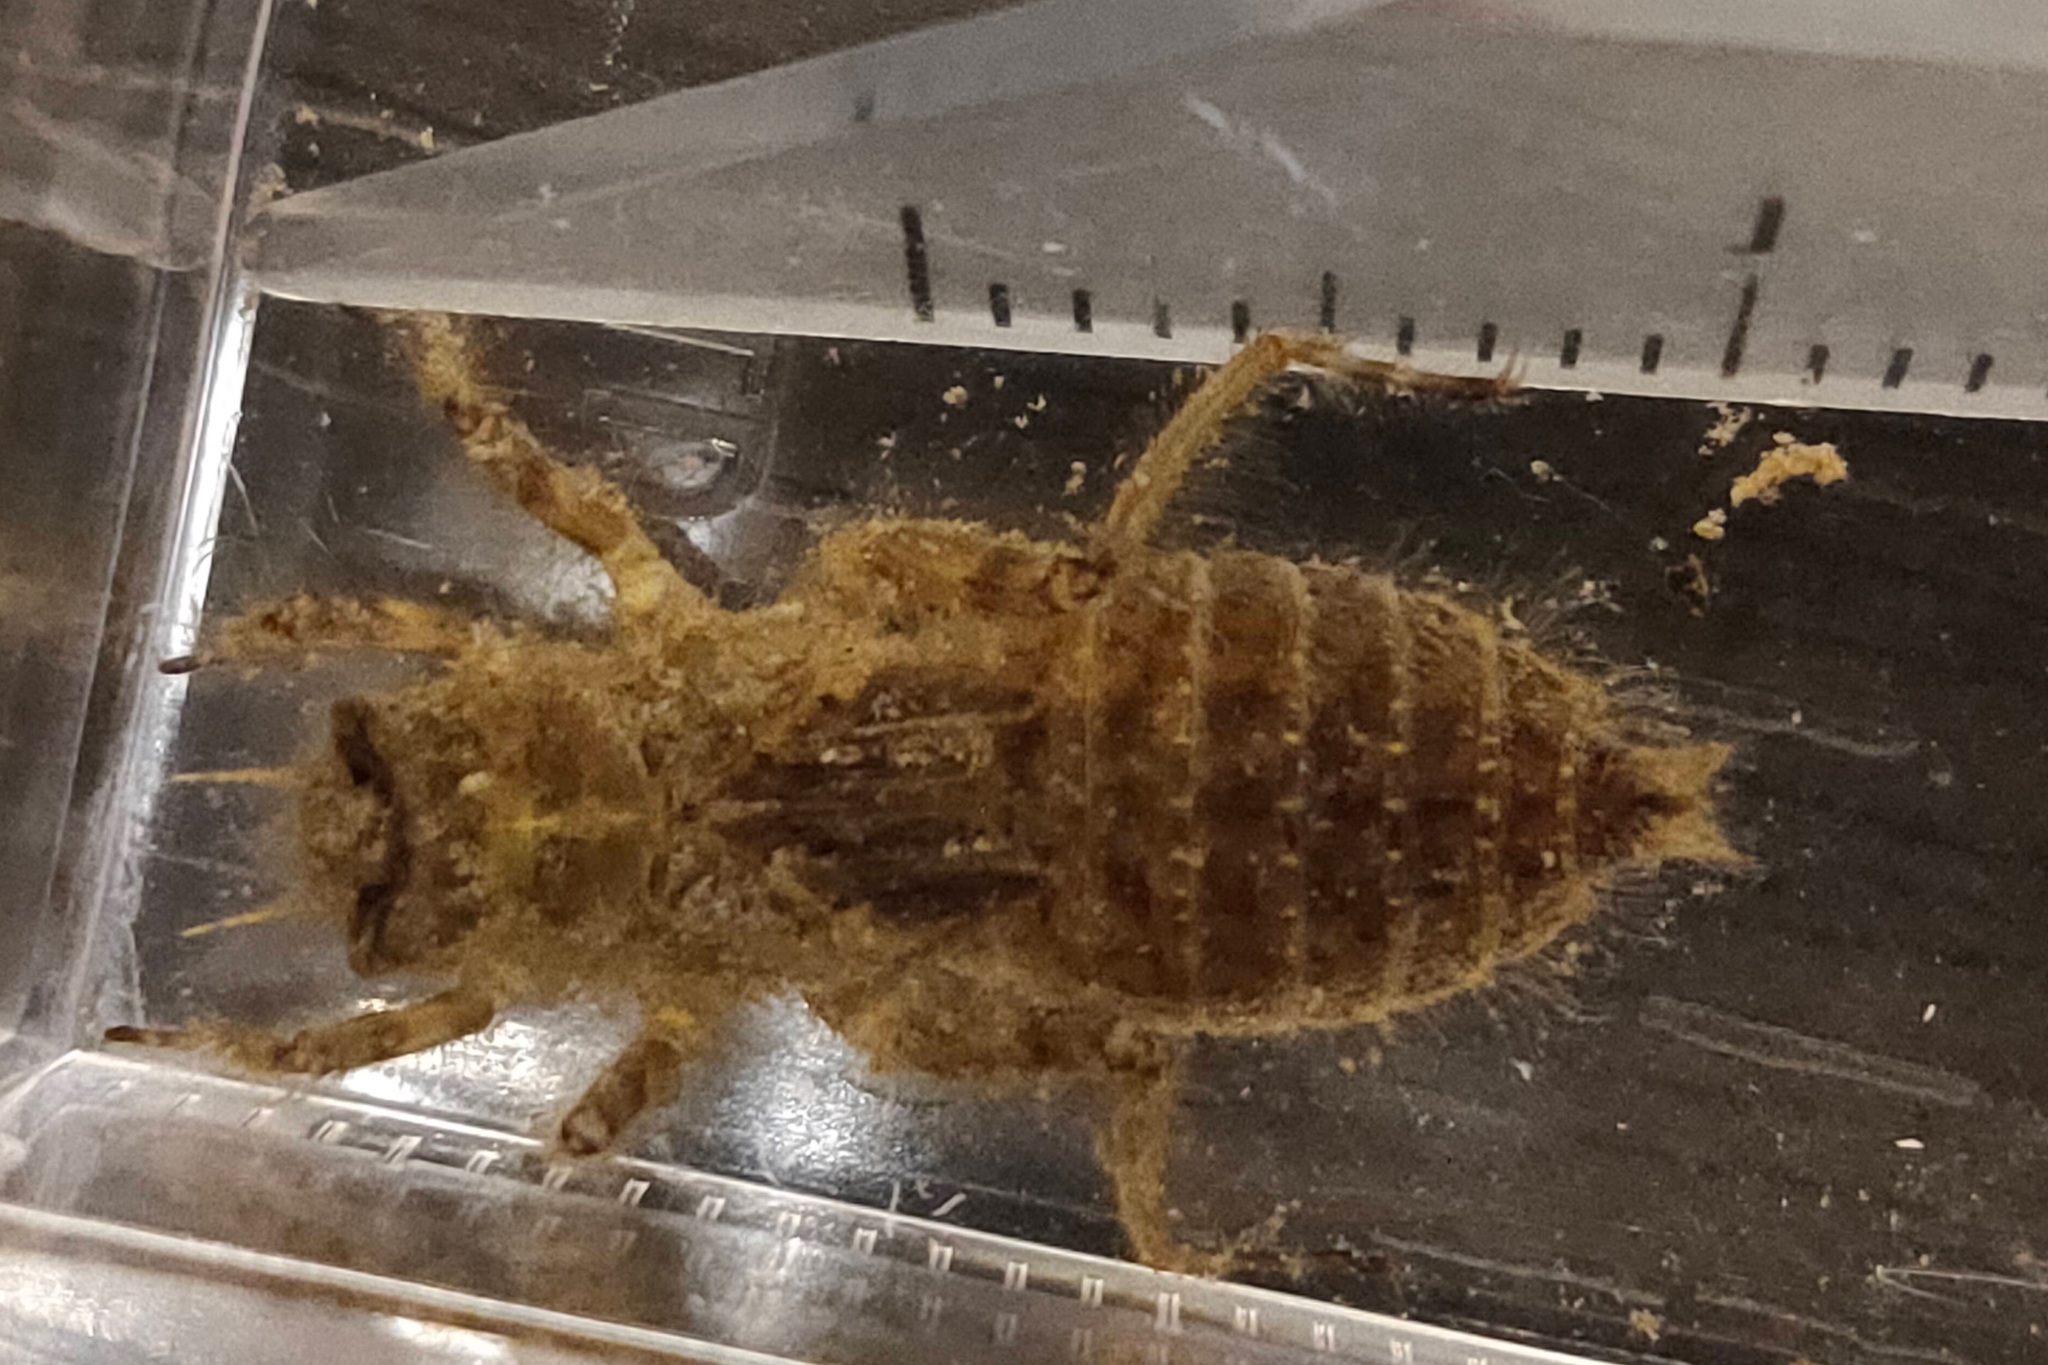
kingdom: Animalia
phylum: Arthropoda
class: Insecta
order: Odonata
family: Libellulidae
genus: Orthetrum
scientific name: Orthetrum albistylum
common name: White-tailed skimmer
